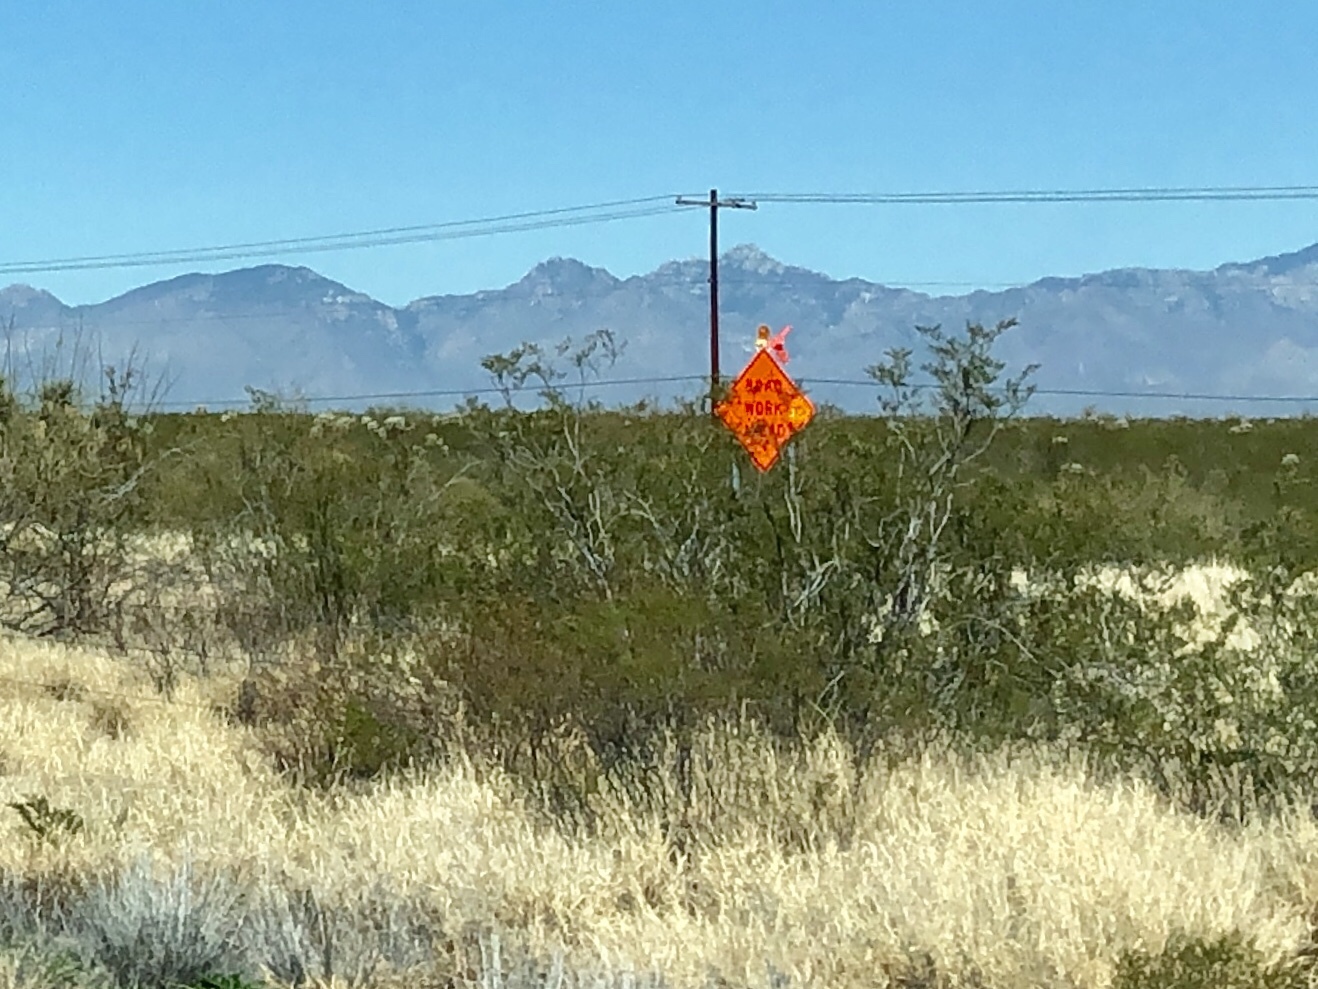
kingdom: Plantae
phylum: Tracheophyta
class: Magnoliopsida
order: Zygophyllales
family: Zygophyllaceae
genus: Larrea
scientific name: Larrea tridentata
